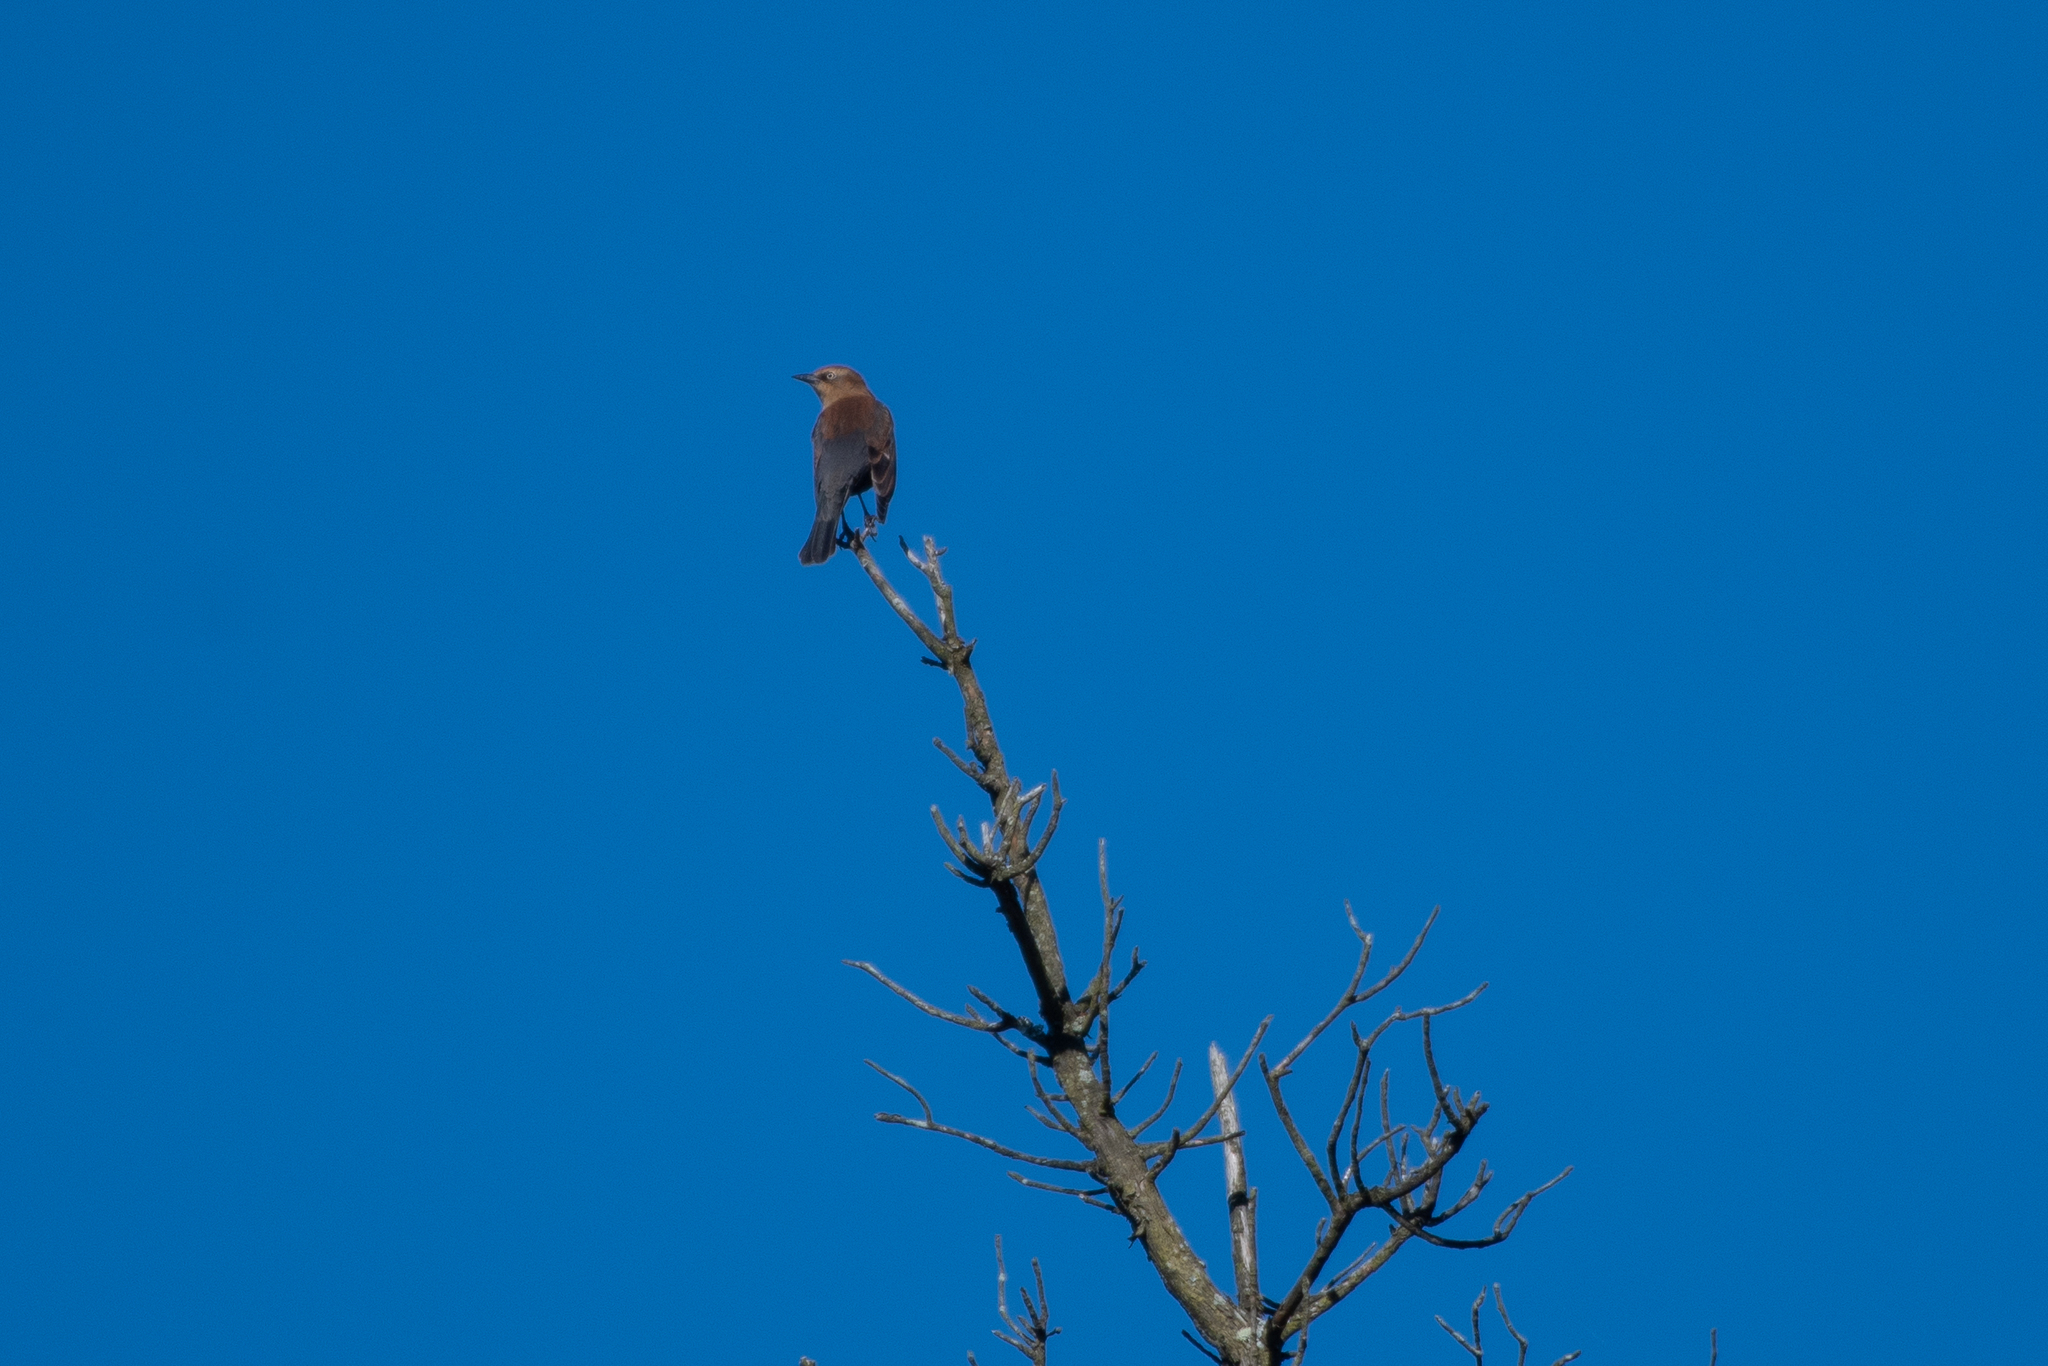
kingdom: Animalia
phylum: Chordata
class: Aves
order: Passeriformes
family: Icteridae
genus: Euphagus
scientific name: Euphagus carolinus
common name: Rusty blackbird
